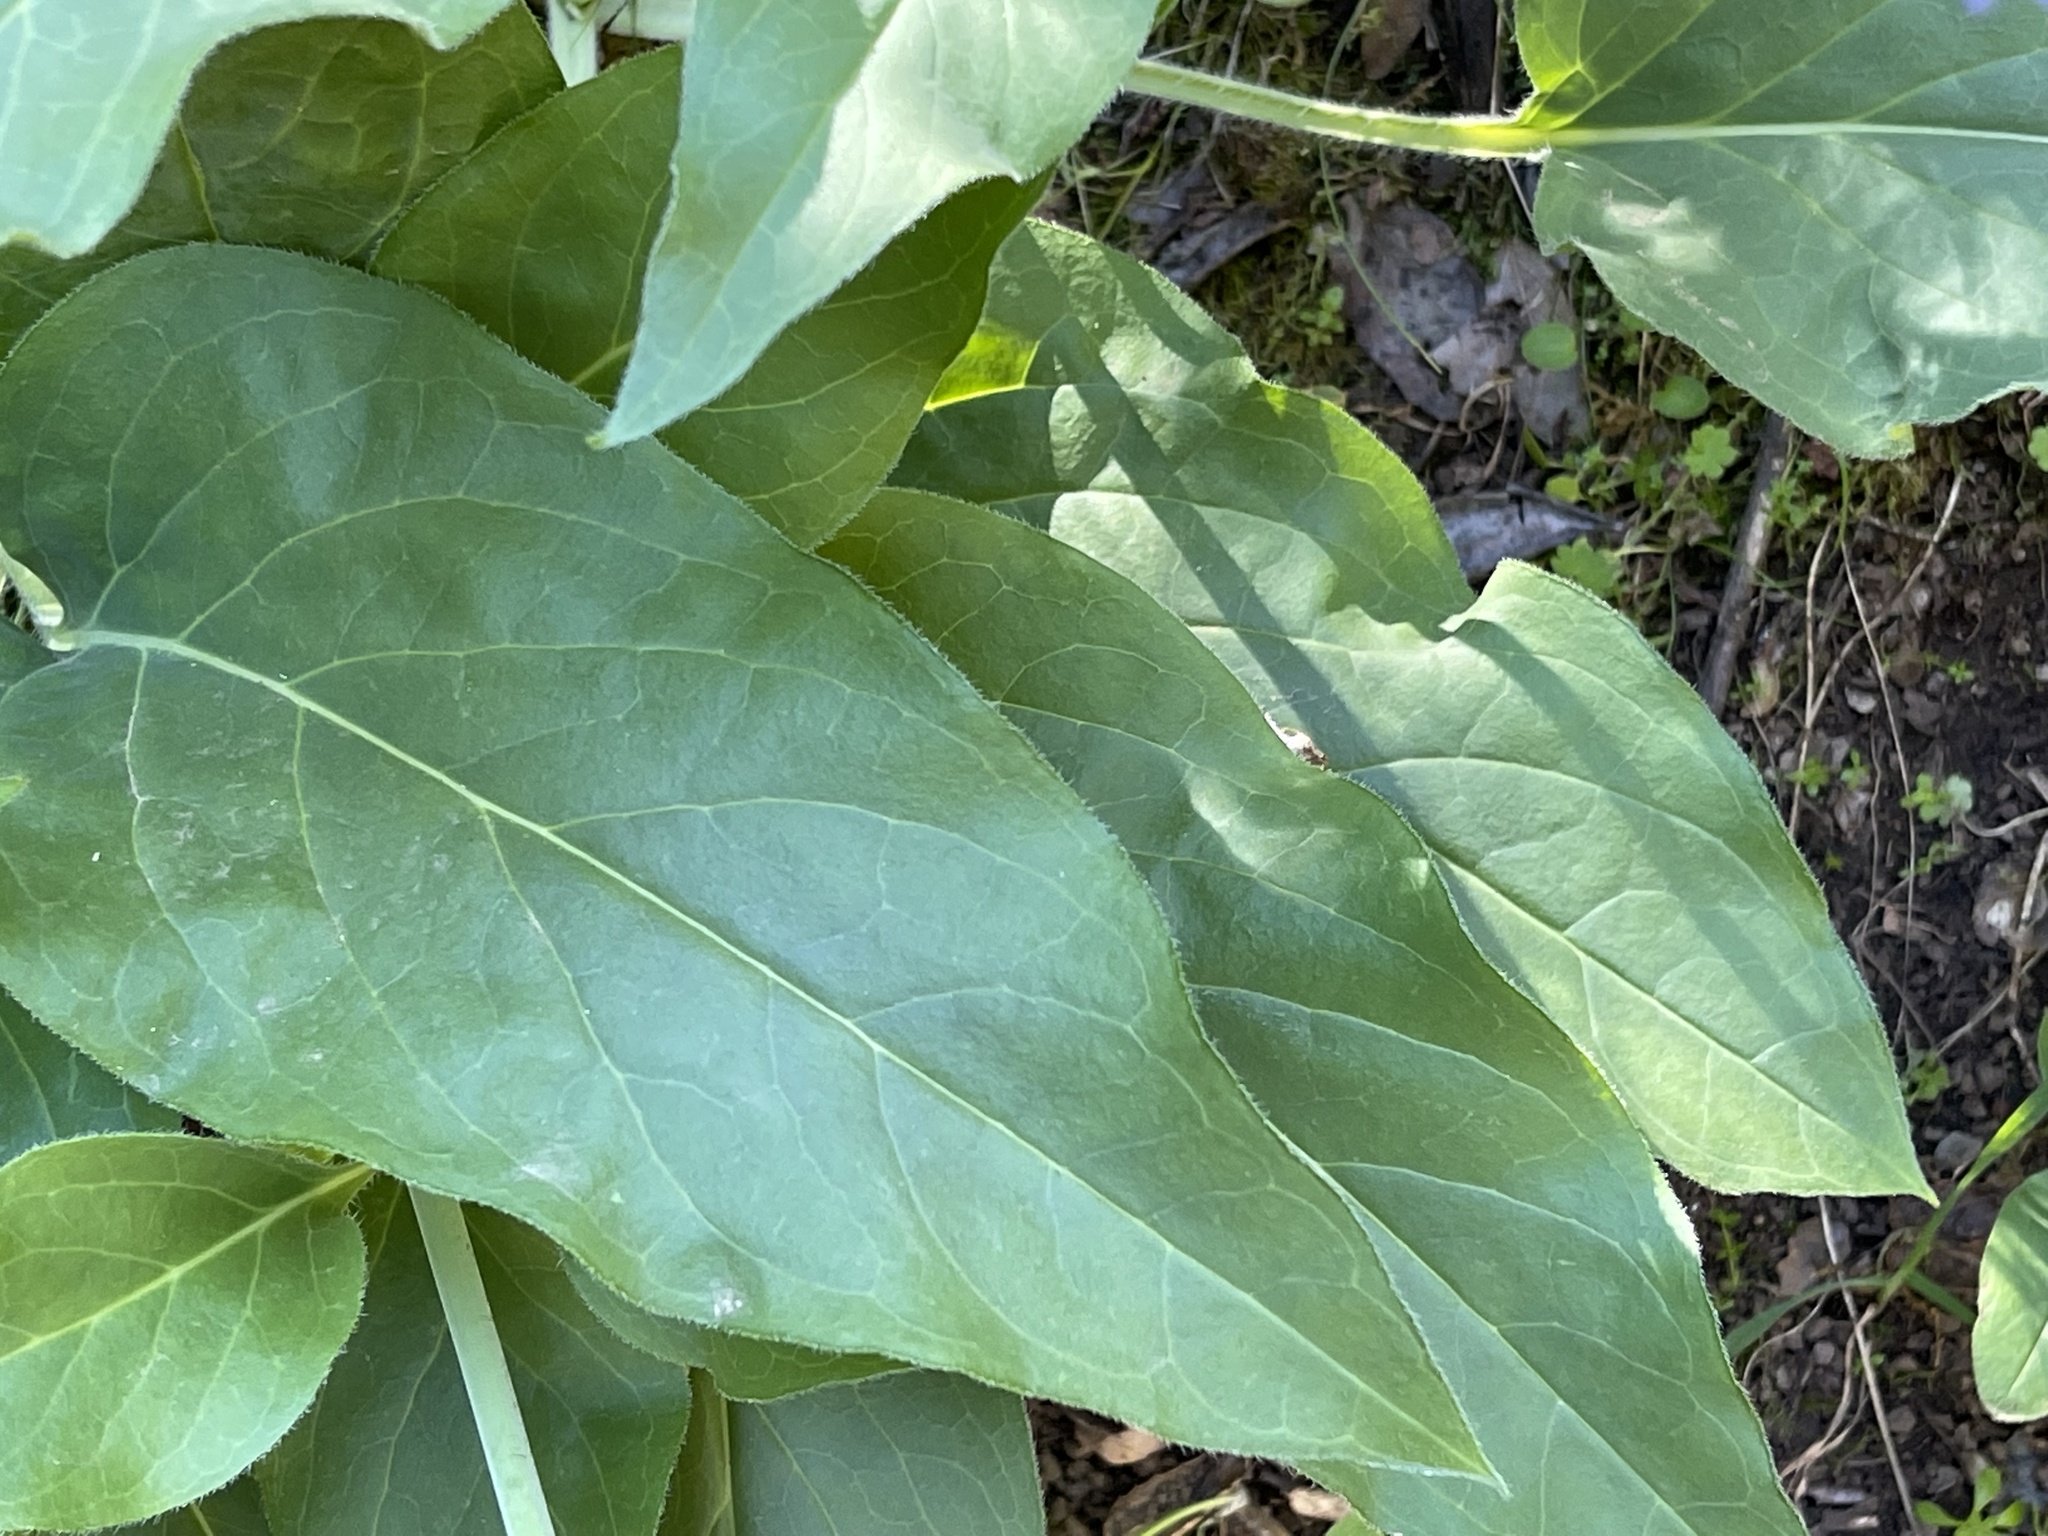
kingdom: Plantae
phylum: Tracheophyta
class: Magnoliopsida
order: Boraginales
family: Boraginaceae
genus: Adelinia
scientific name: Adelinia grande
